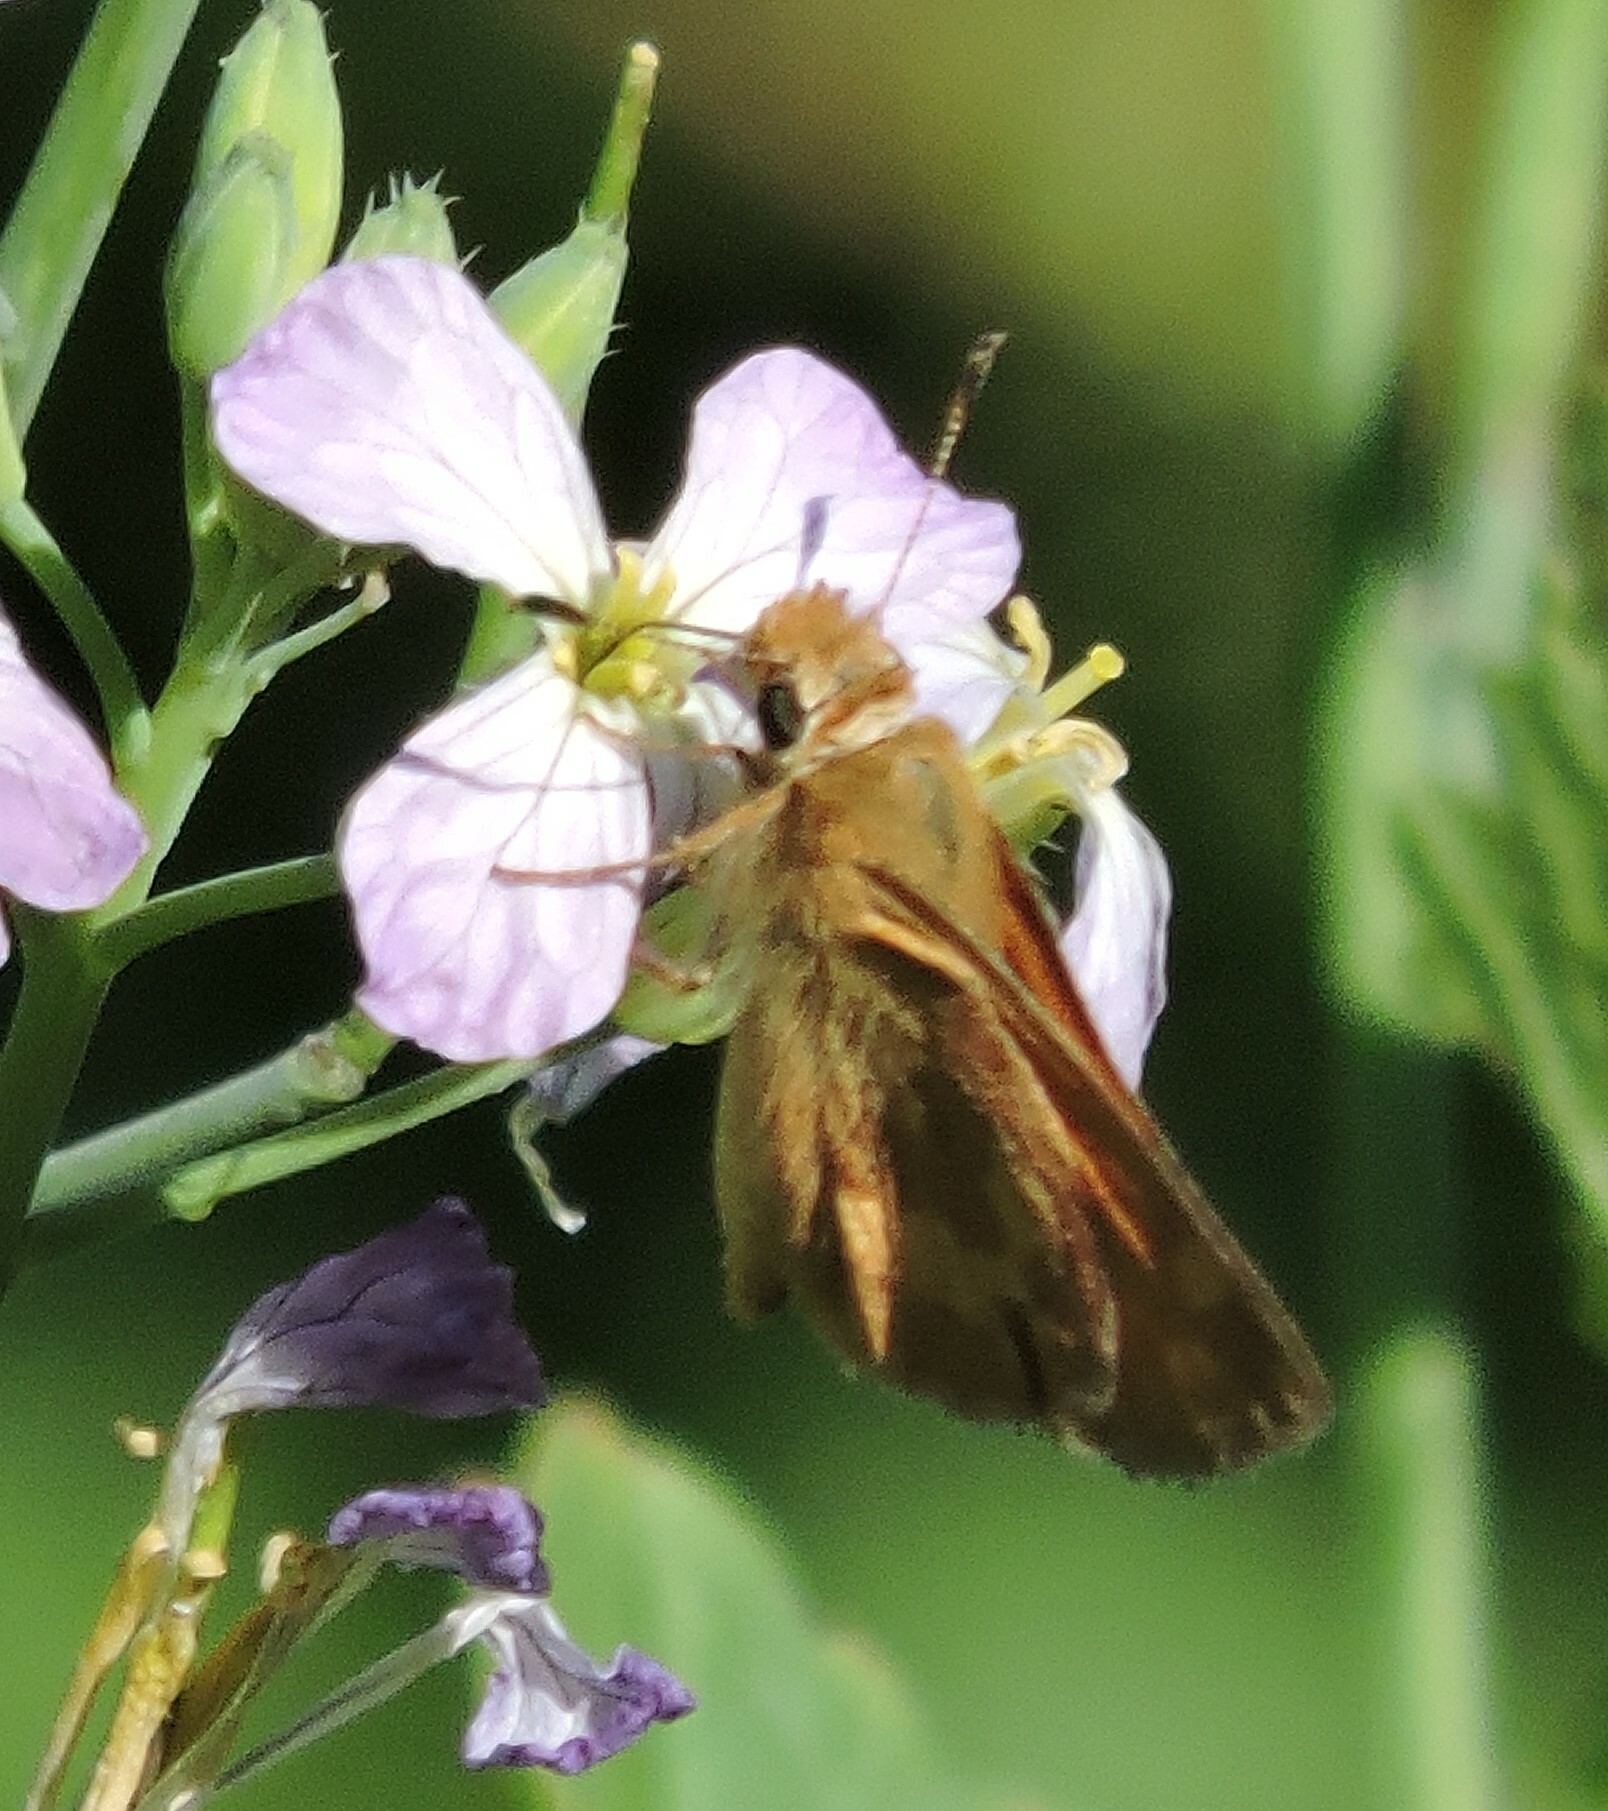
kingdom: Animalia
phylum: Arthropoda
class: Insecta
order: Lepidoptera
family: Hesperiidae
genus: Ochlodes
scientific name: Ochlodes sylvanoides
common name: Woodland skipper
